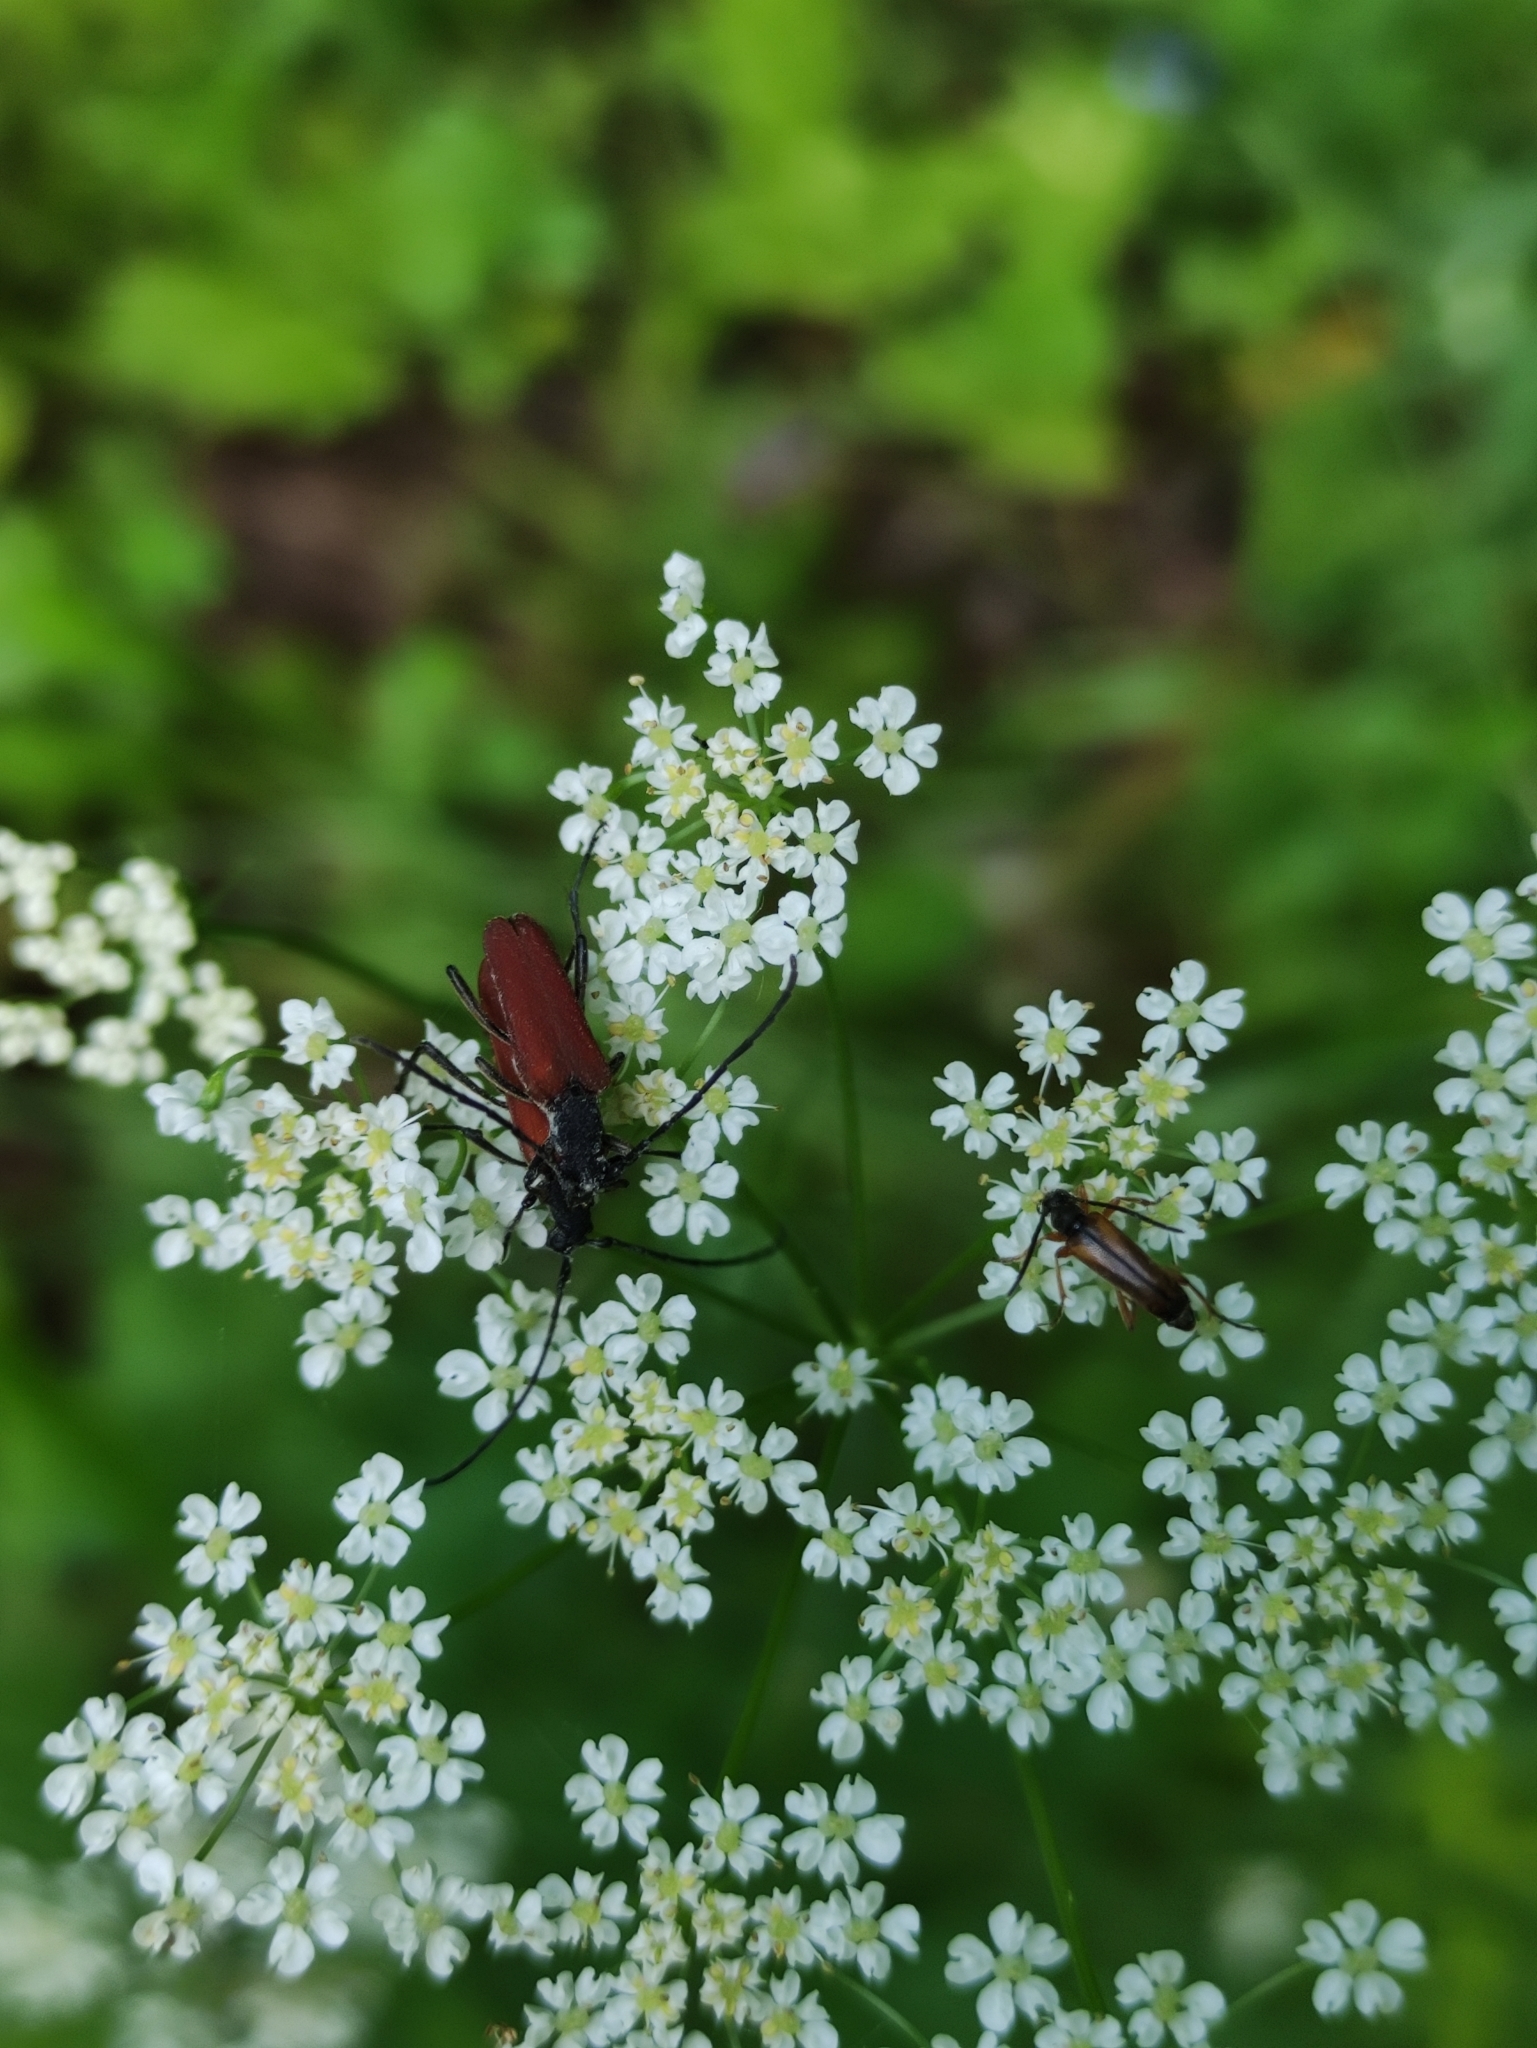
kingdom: Plantae
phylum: Tracheophyta
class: Magnoliopsida
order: Apiales
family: Apiaceae
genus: Carum
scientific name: Carum carvi
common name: Caraway
